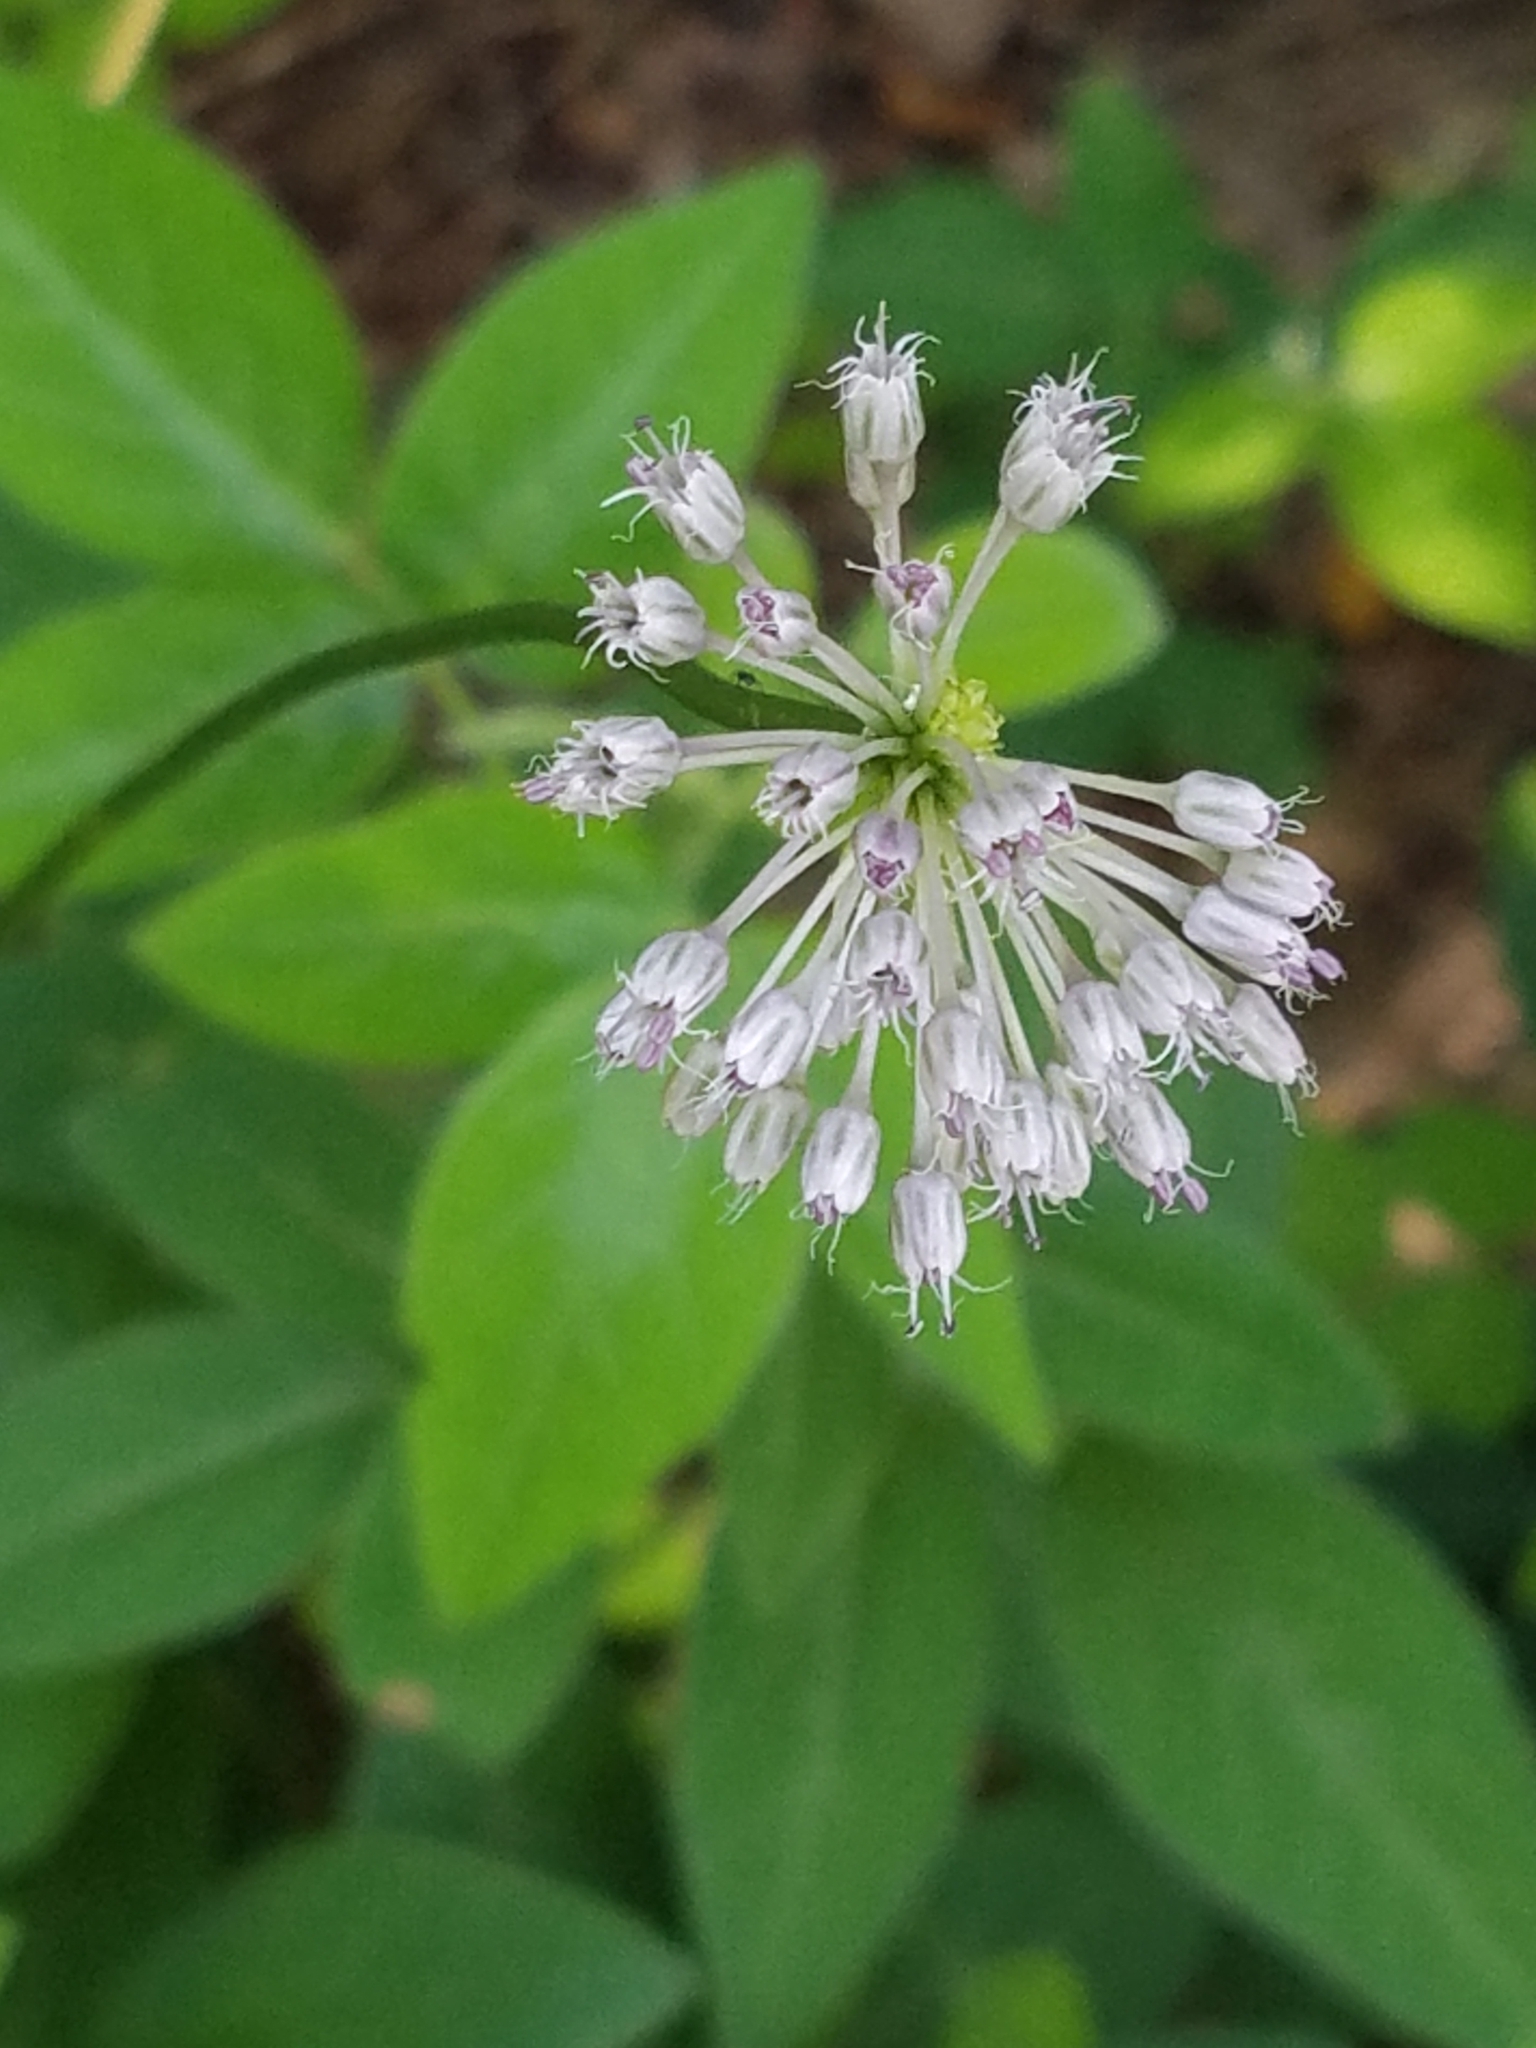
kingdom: Plantae
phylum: Tracheophyta
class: Liliopsida
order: Asparagales
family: Amaryllidaceae
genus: Allium
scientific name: Allium vineale
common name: Crow garlic
